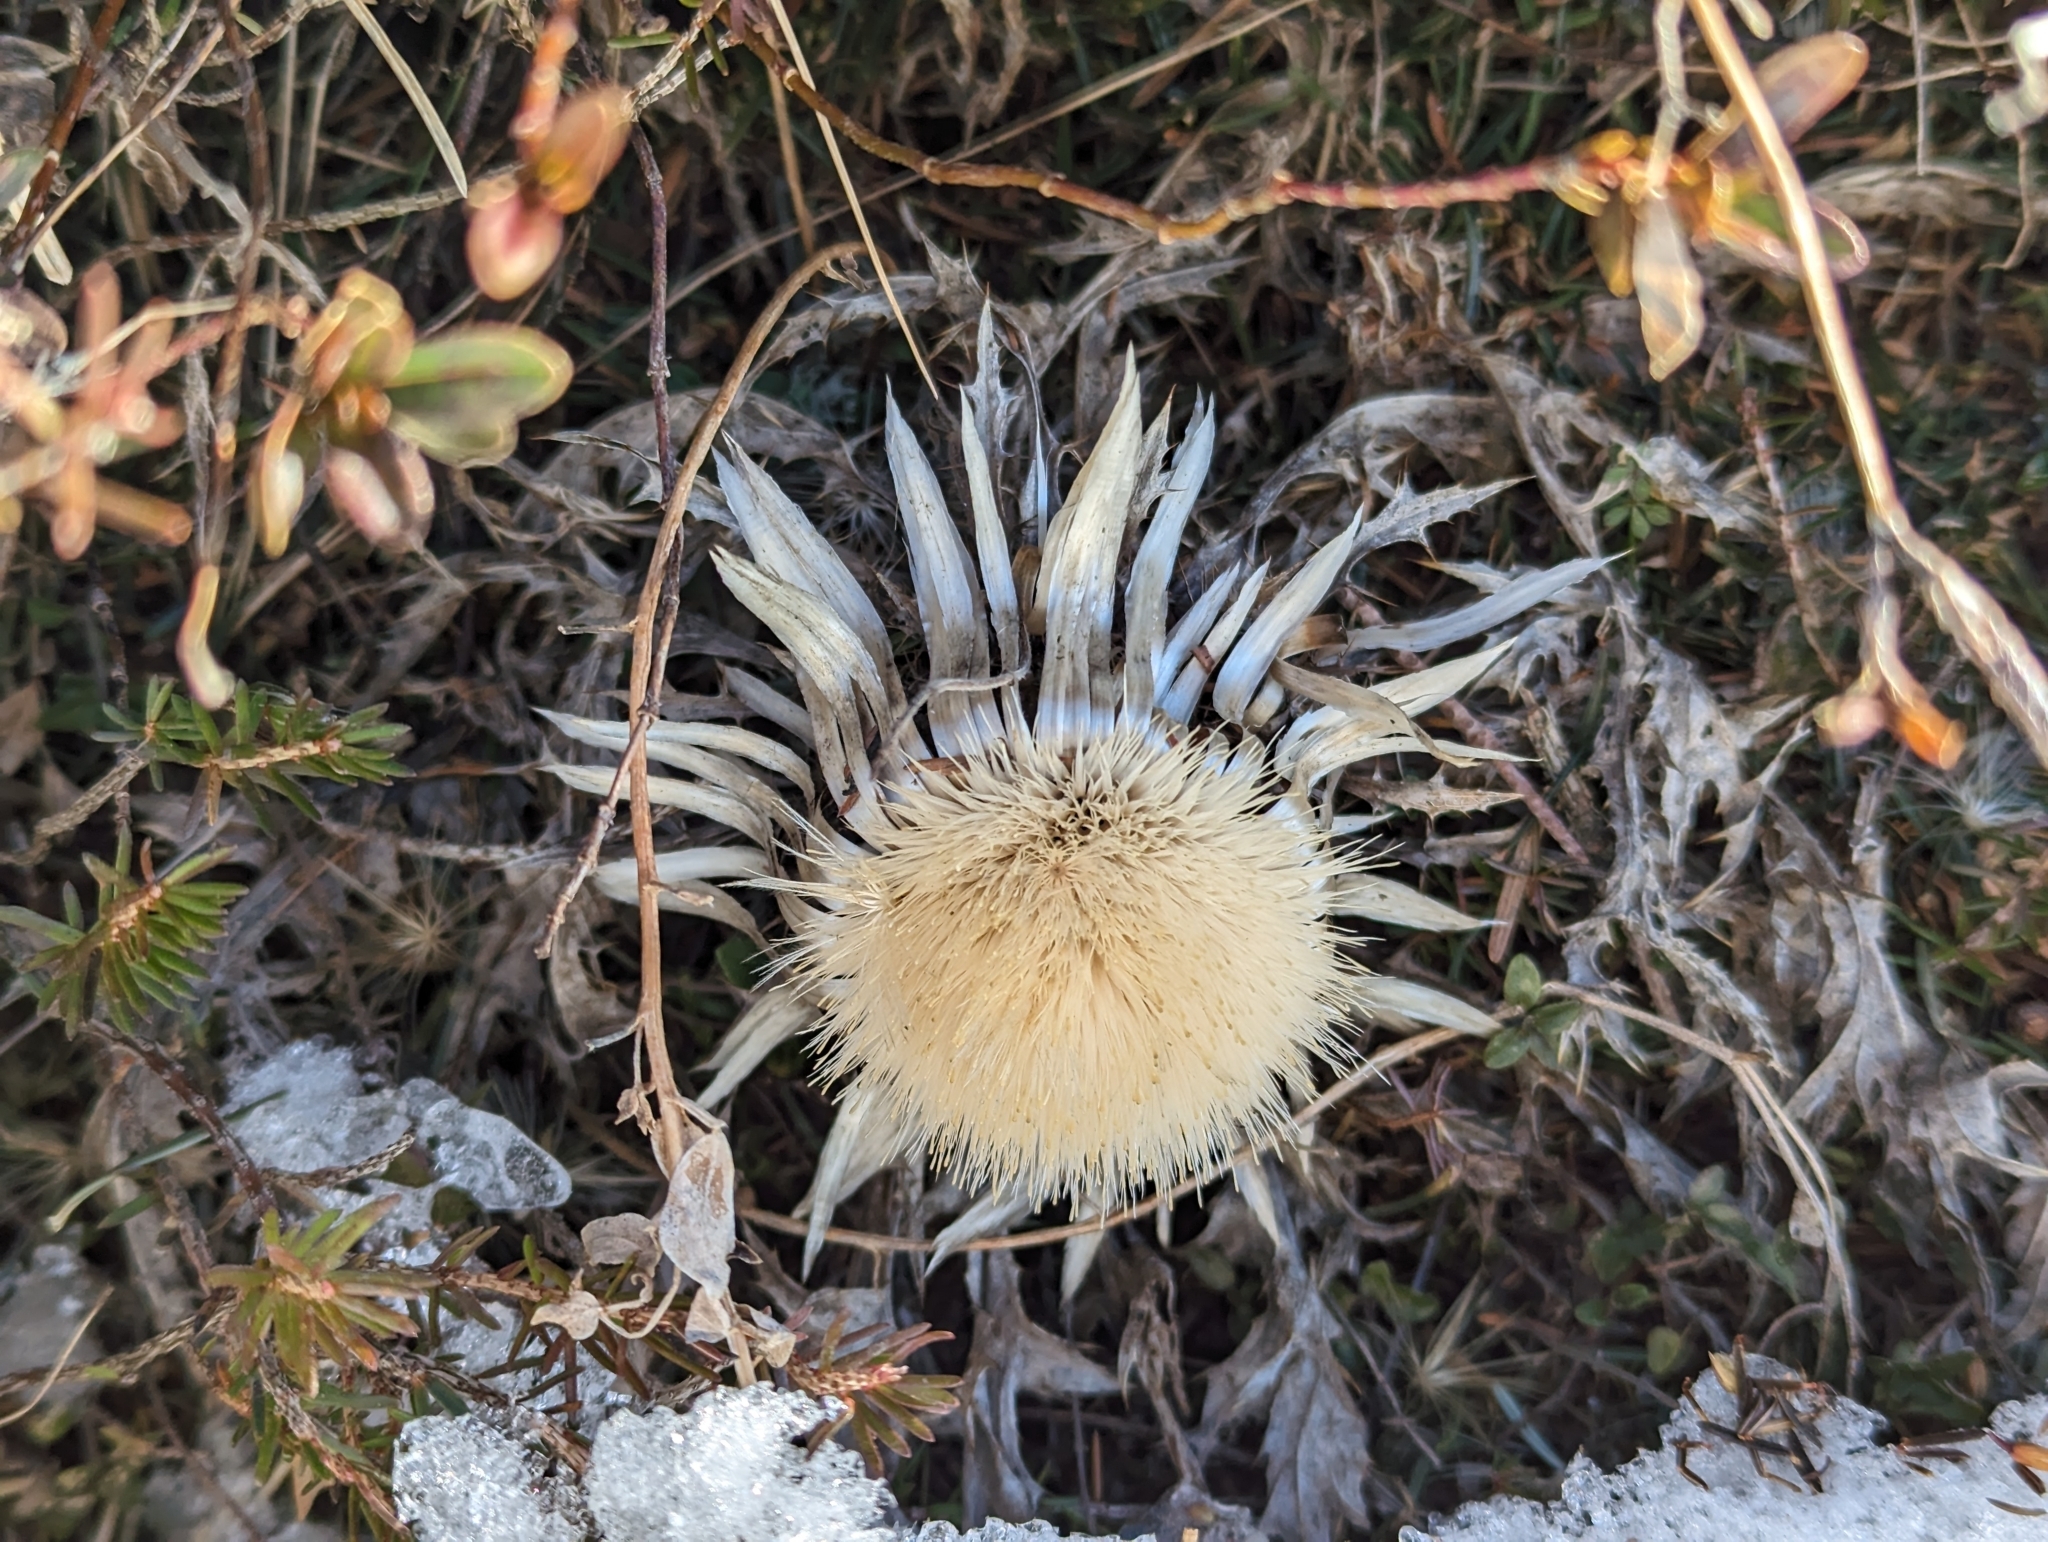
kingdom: Plantae
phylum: Tracheophyta
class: Magnoliopsida
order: Asterales
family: Asteraceae
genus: Carlina
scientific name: Carlina acaulis
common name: Stemless carline thistle
